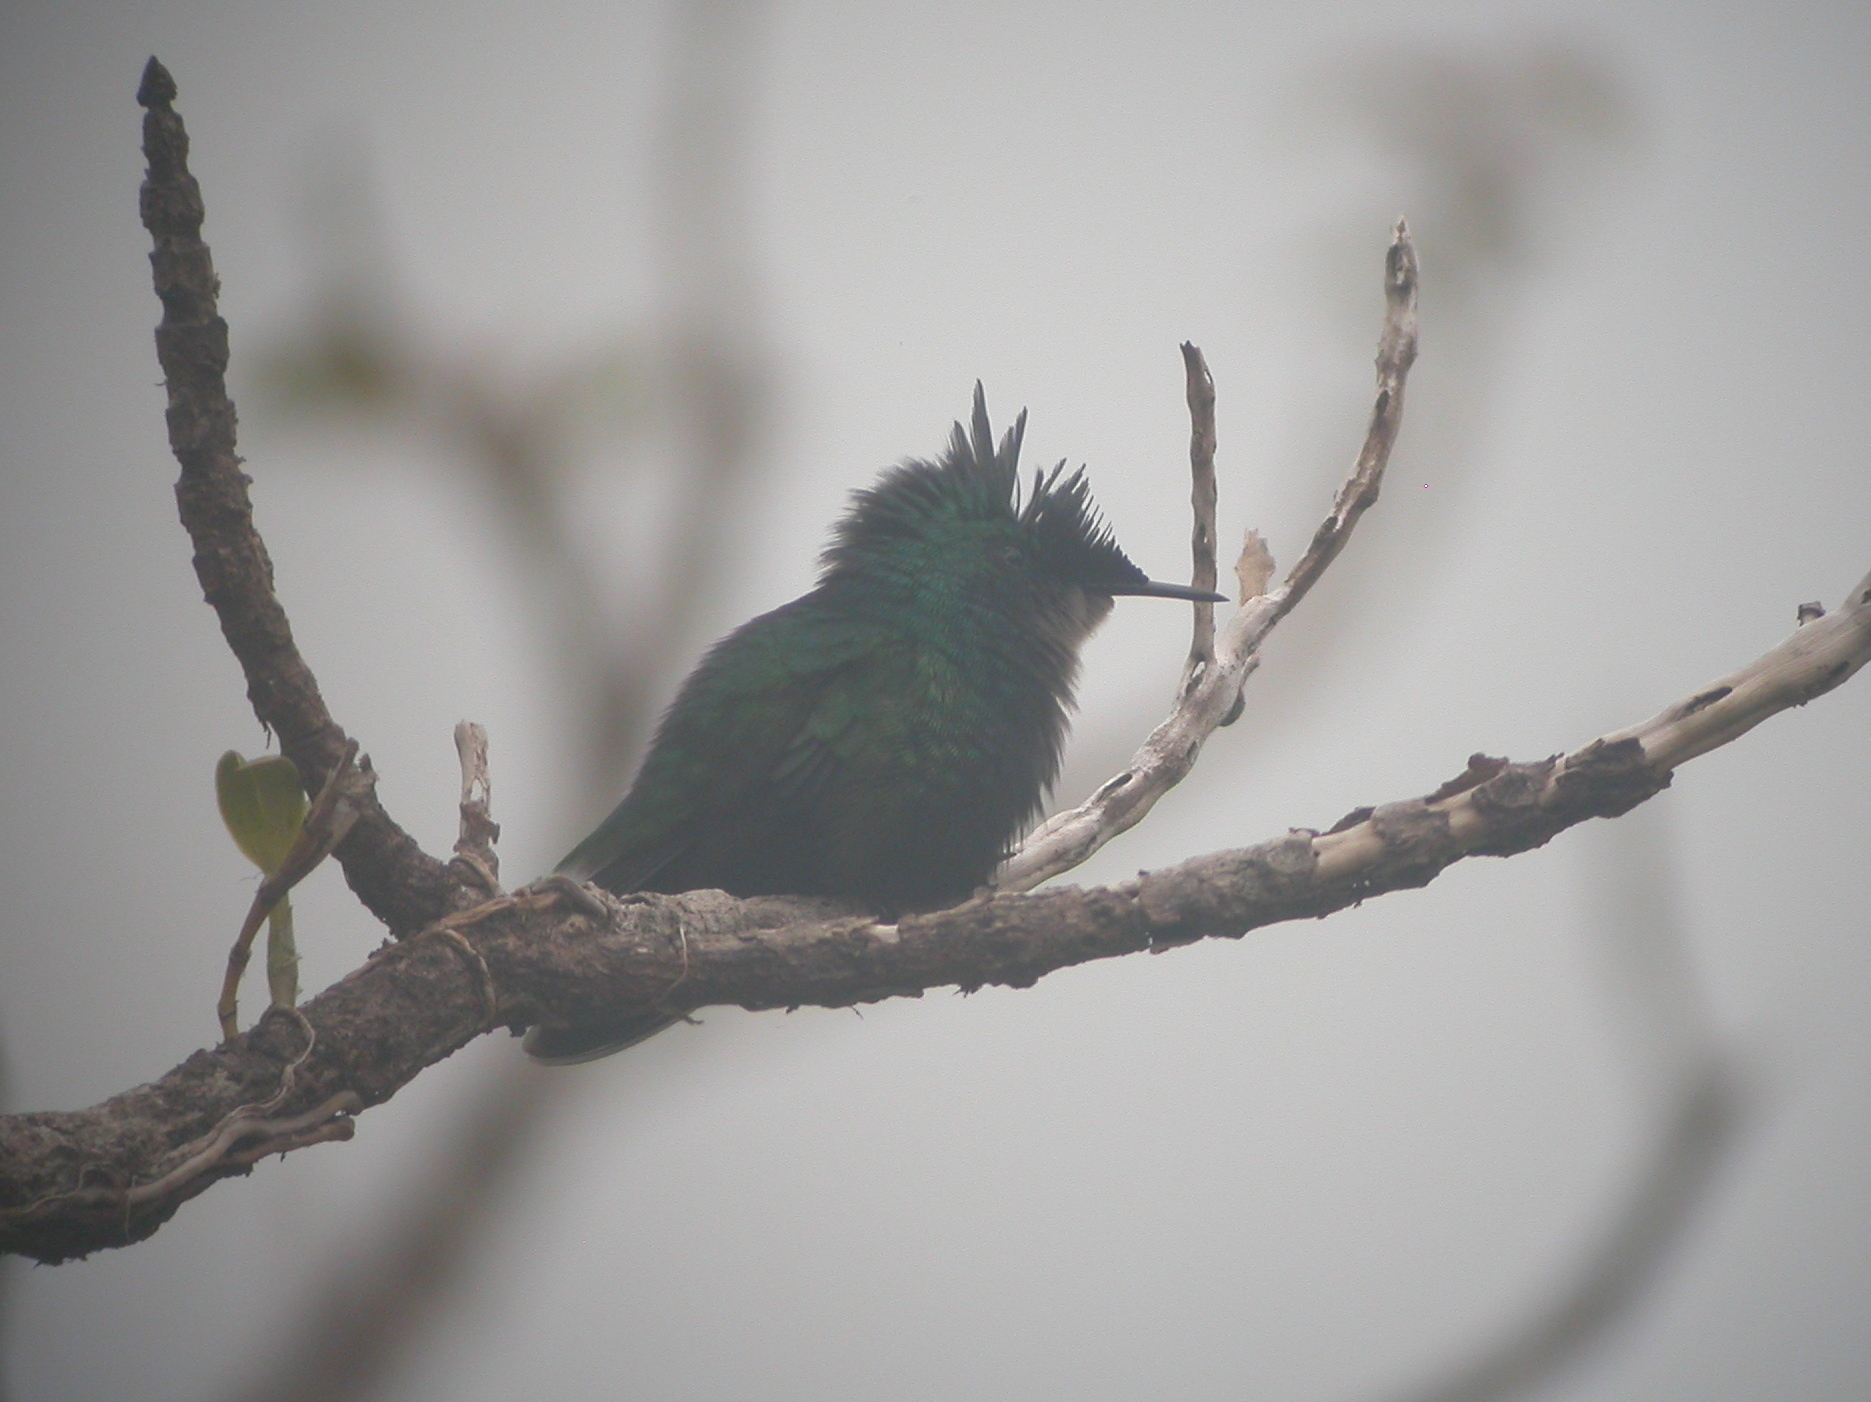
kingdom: Animalia
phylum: Chordata
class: Aves
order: Apodiformes
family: Trochilidae
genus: Orthorhyncus
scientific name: Orthorhyncus cristatus
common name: Antillean crested hummingbird
